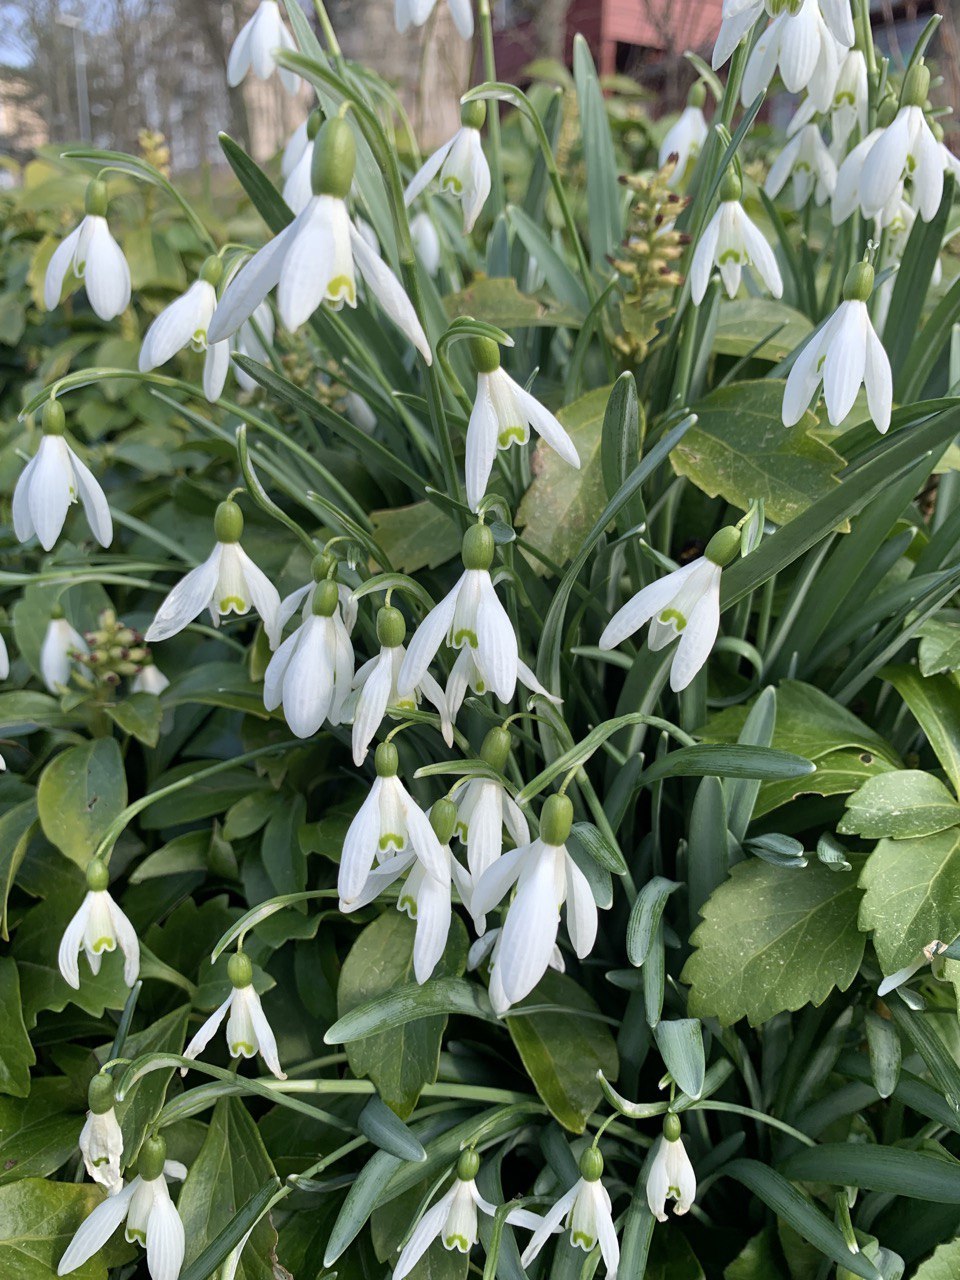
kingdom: Plantae
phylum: Tracheophyta
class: Liliopsida
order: Asparagales
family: Amaryllidaceae
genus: Galanthus
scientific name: Galanthus nivalis
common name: Snowdrop
